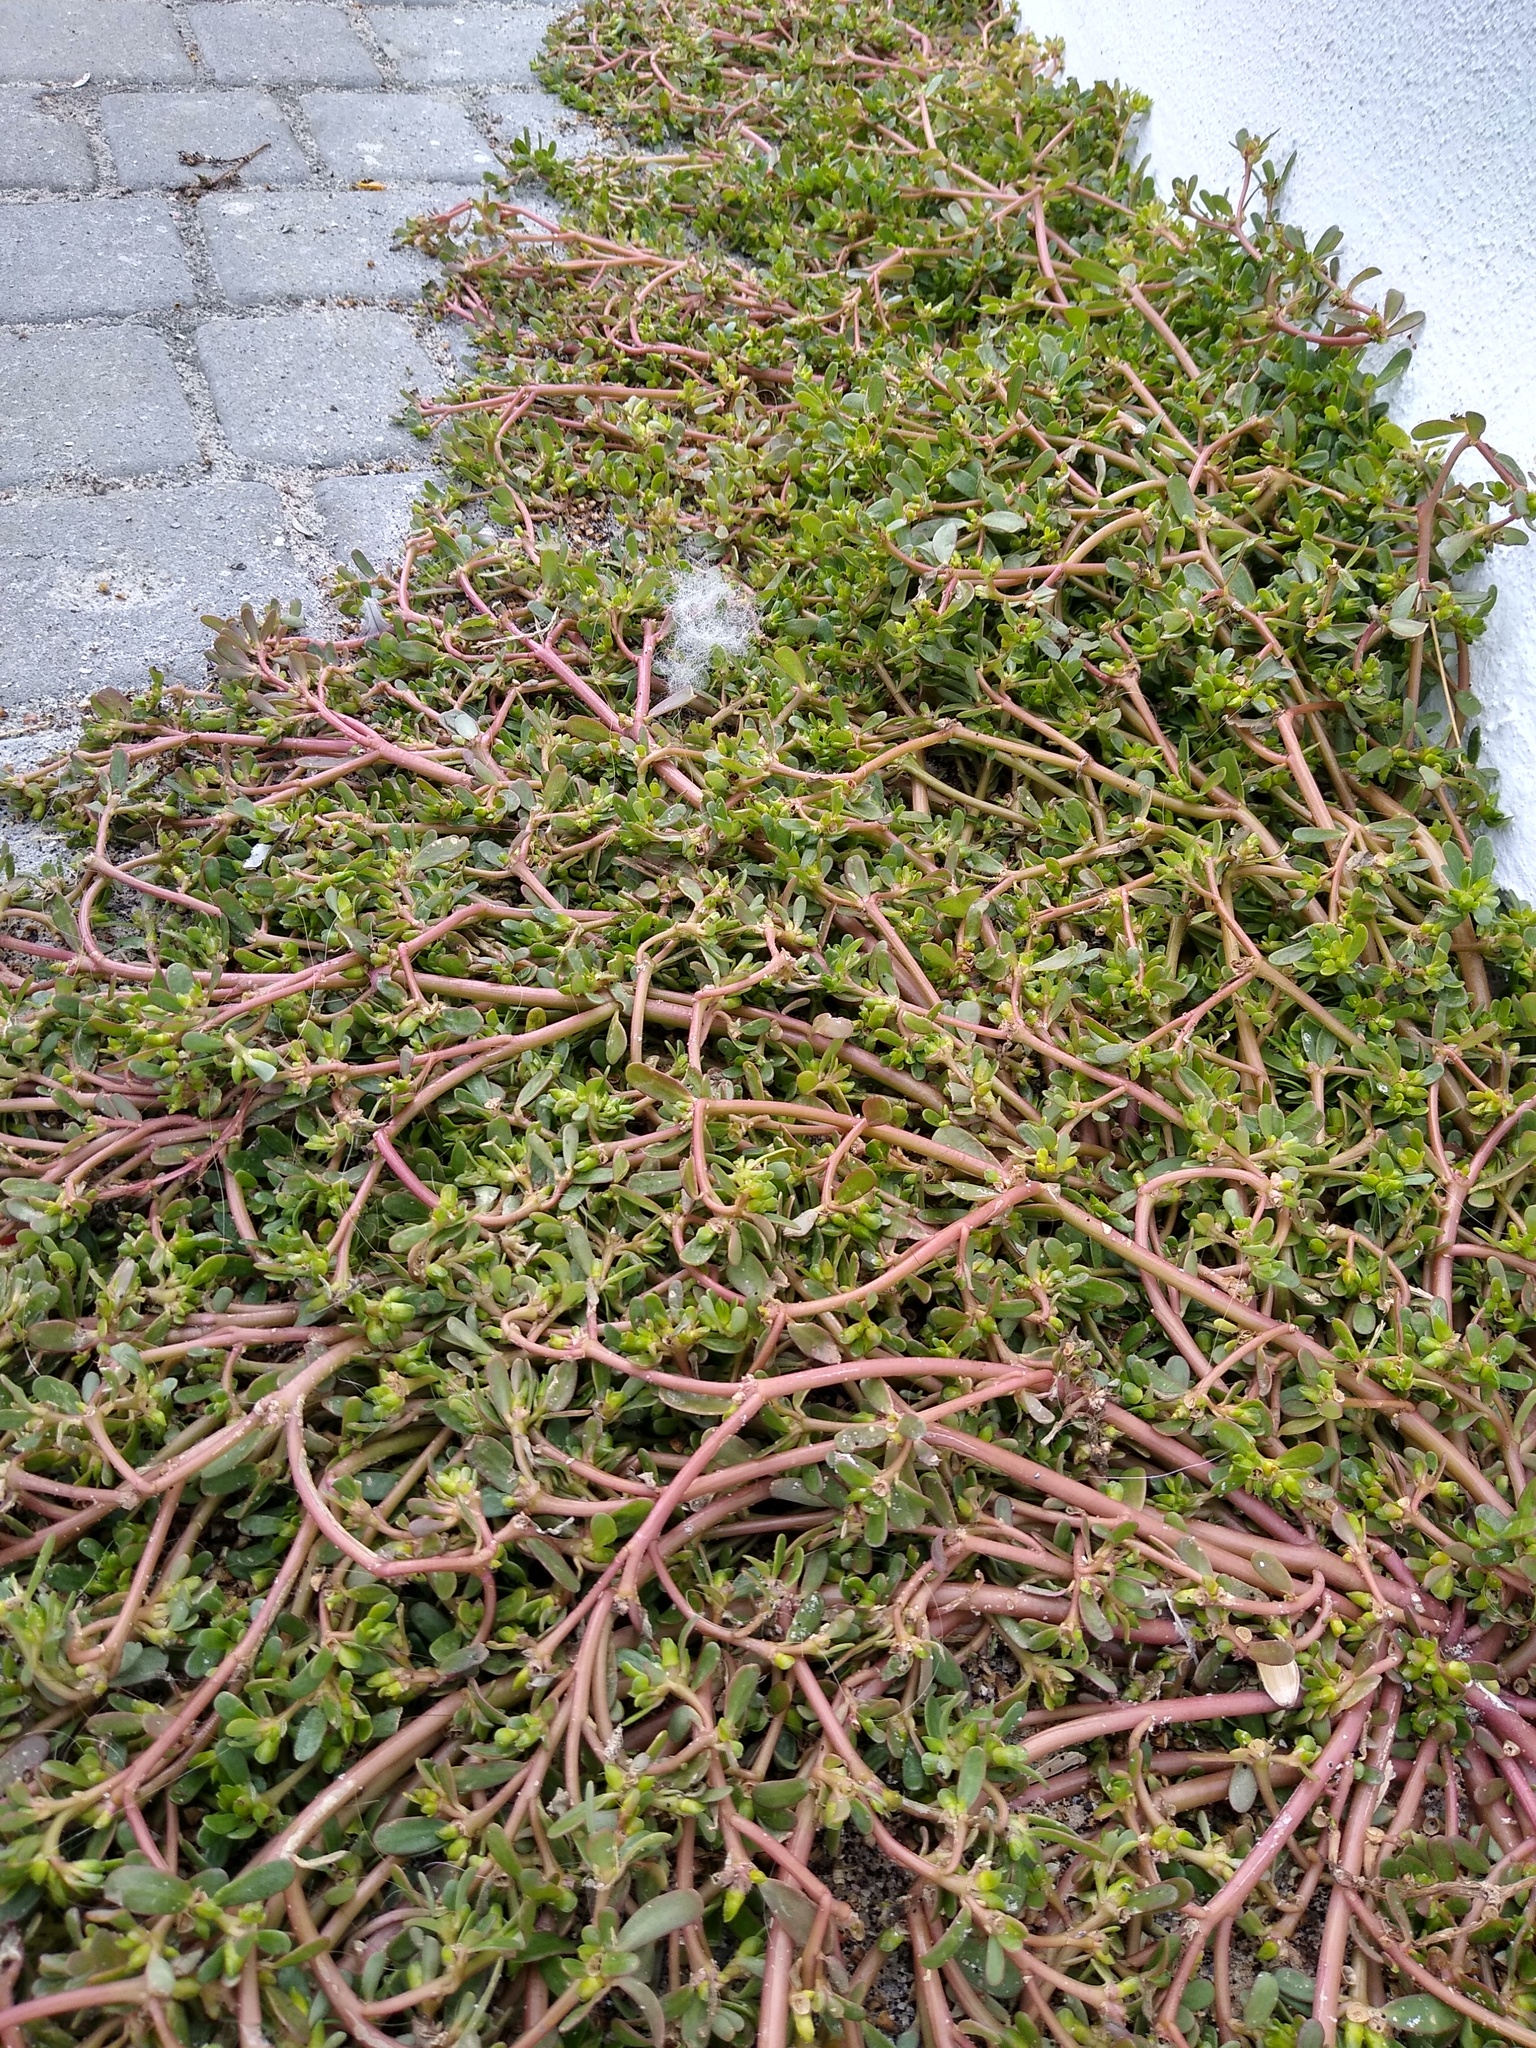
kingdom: Plantae
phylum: Tracheophyta
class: Magnoliopsida
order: Caryophyllales
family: Portulacaceae
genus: Portulaca
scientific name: Portulaca oleracea
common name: Common purslane
